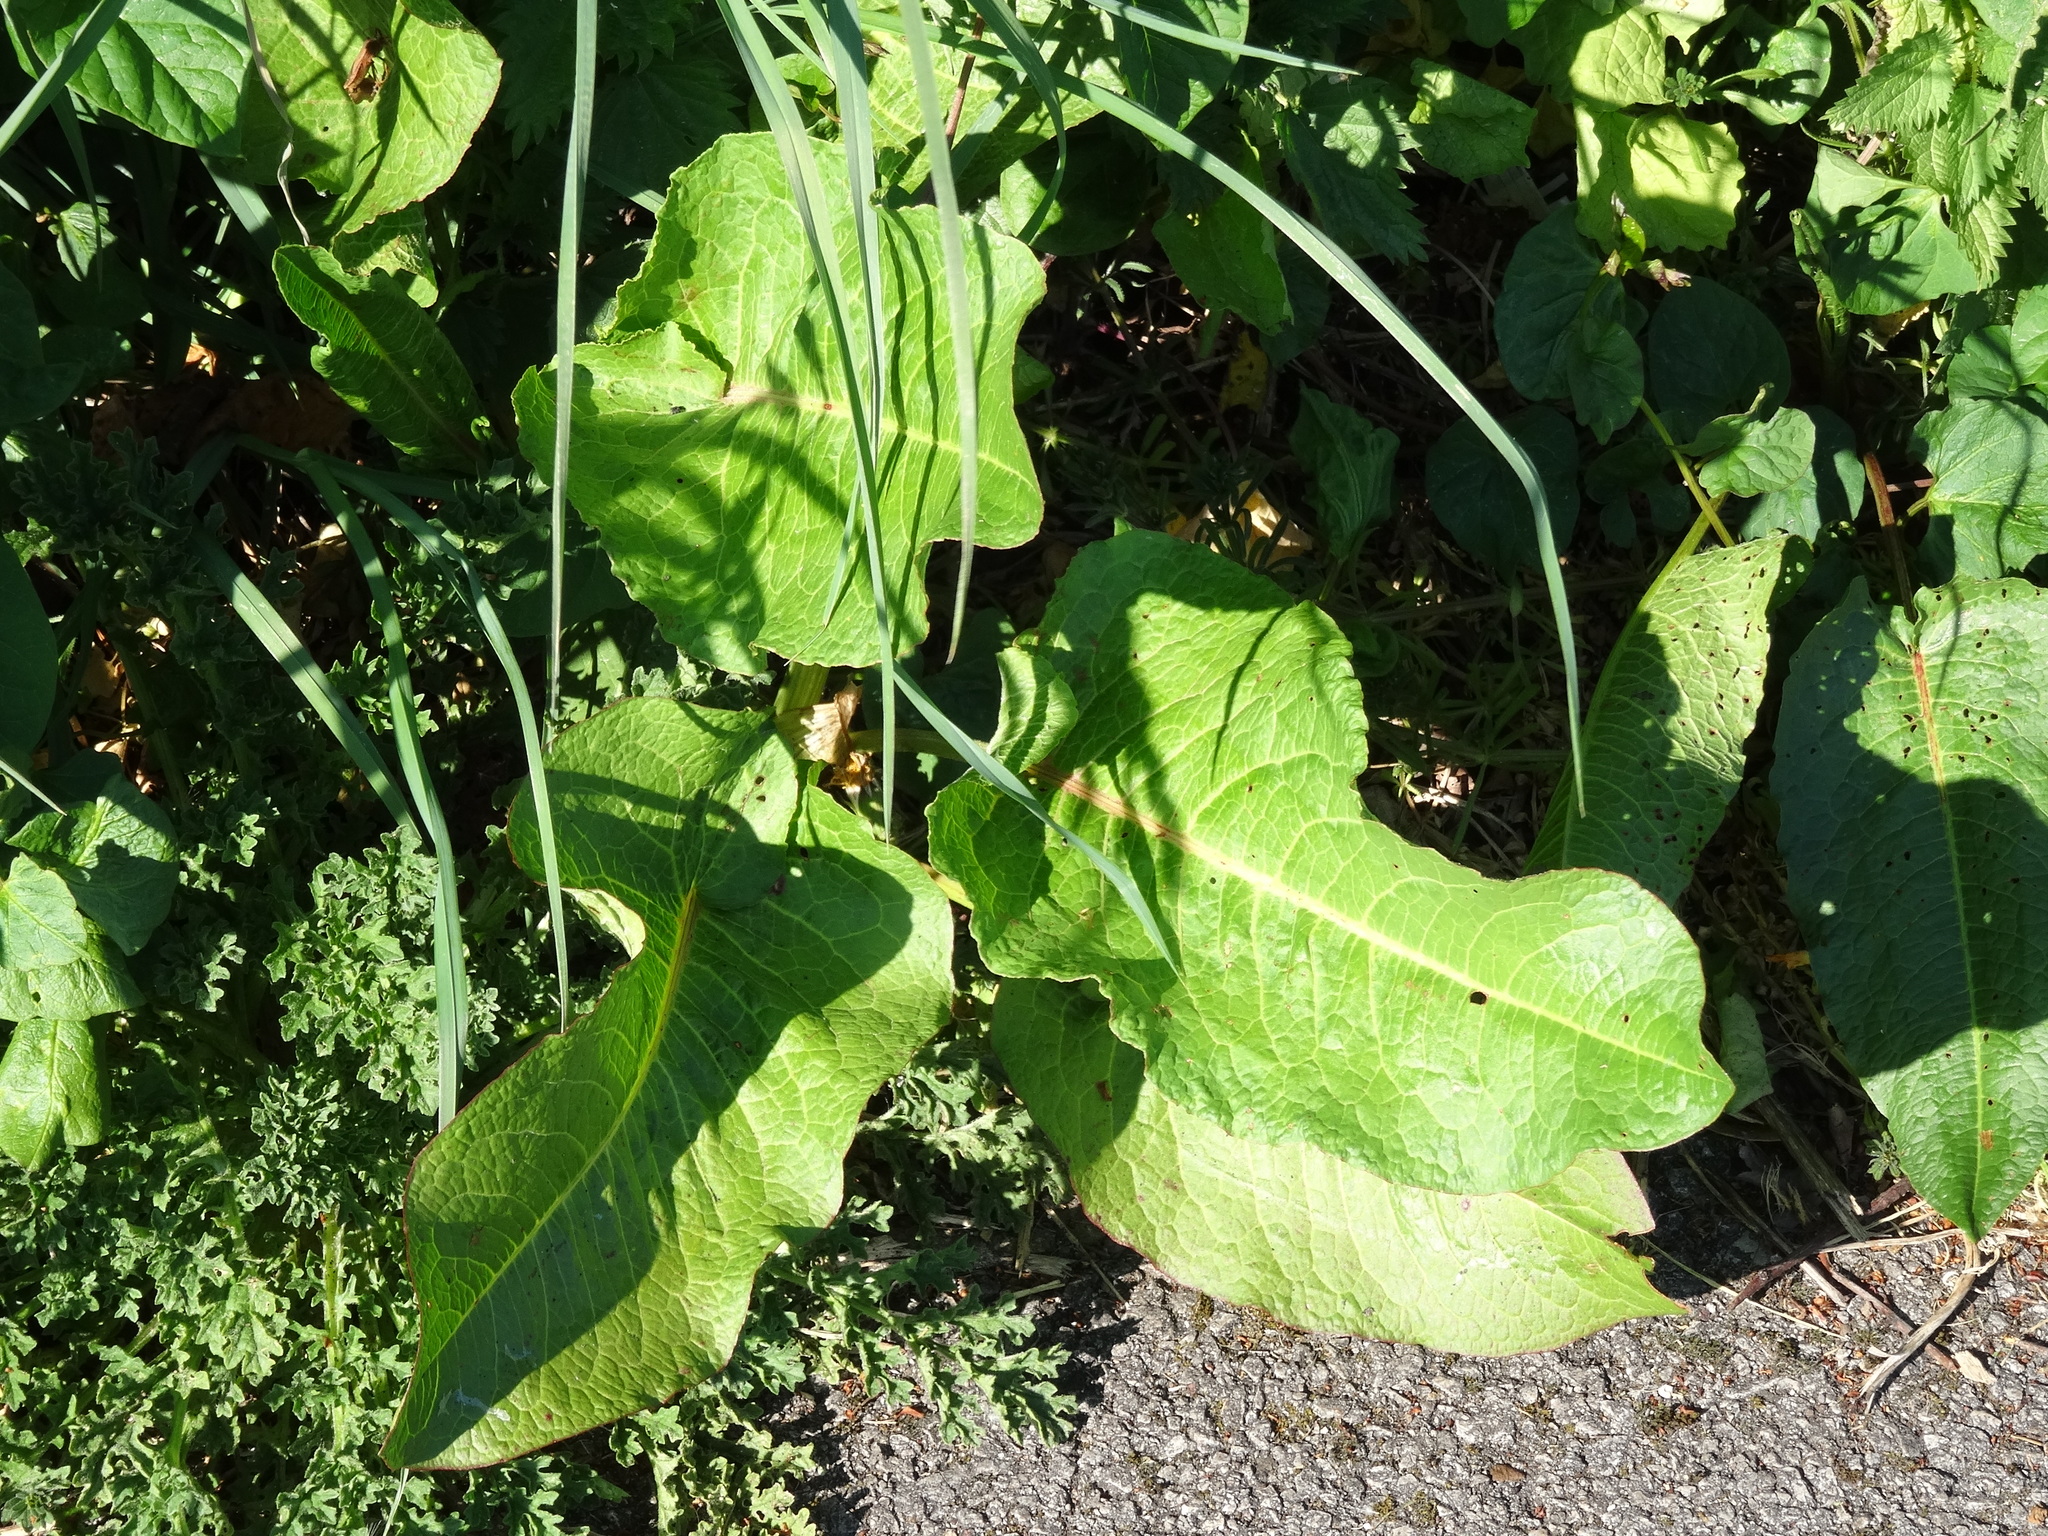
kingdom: Plantae
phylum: Tracheophyta
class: Magnoliopsida
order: Caryophyllales
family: Polygonaceae
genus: Rumex
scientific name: Rumex obtusifolius
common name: Bitter dock
